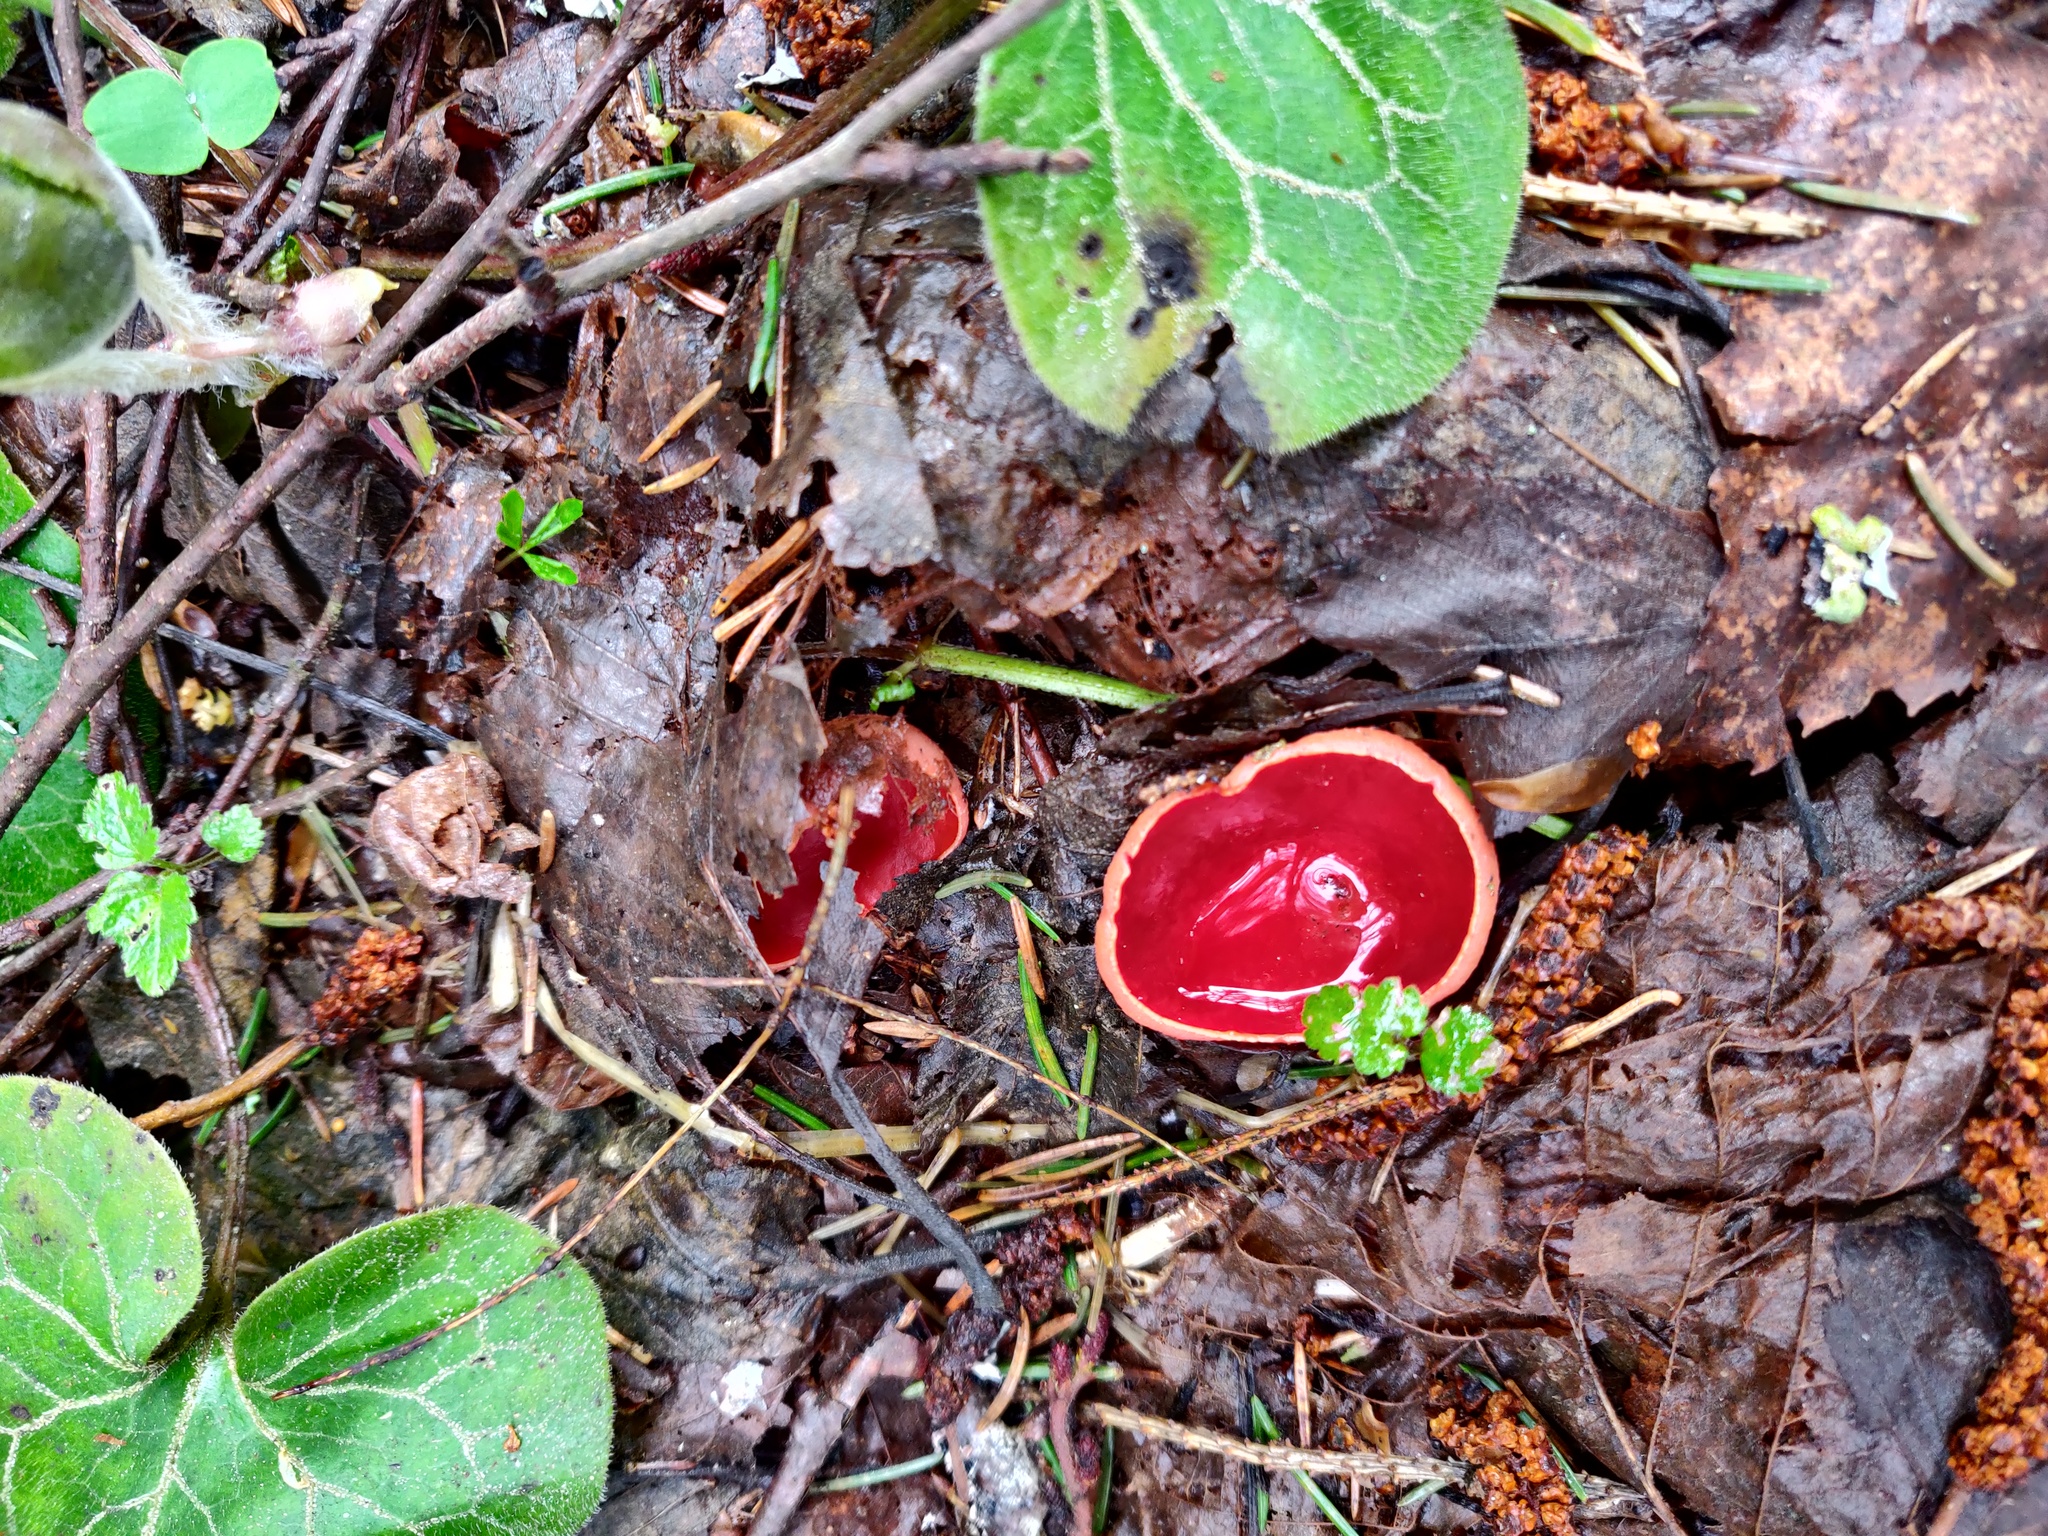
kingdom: Fungi
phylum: Ascomycota
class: Pezizomycetes
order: Pezizales
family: Sarcoscyphaceae
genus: Sarcoscypha
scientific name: Sarcoscypha austriaca
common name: Scarlet elfcup
